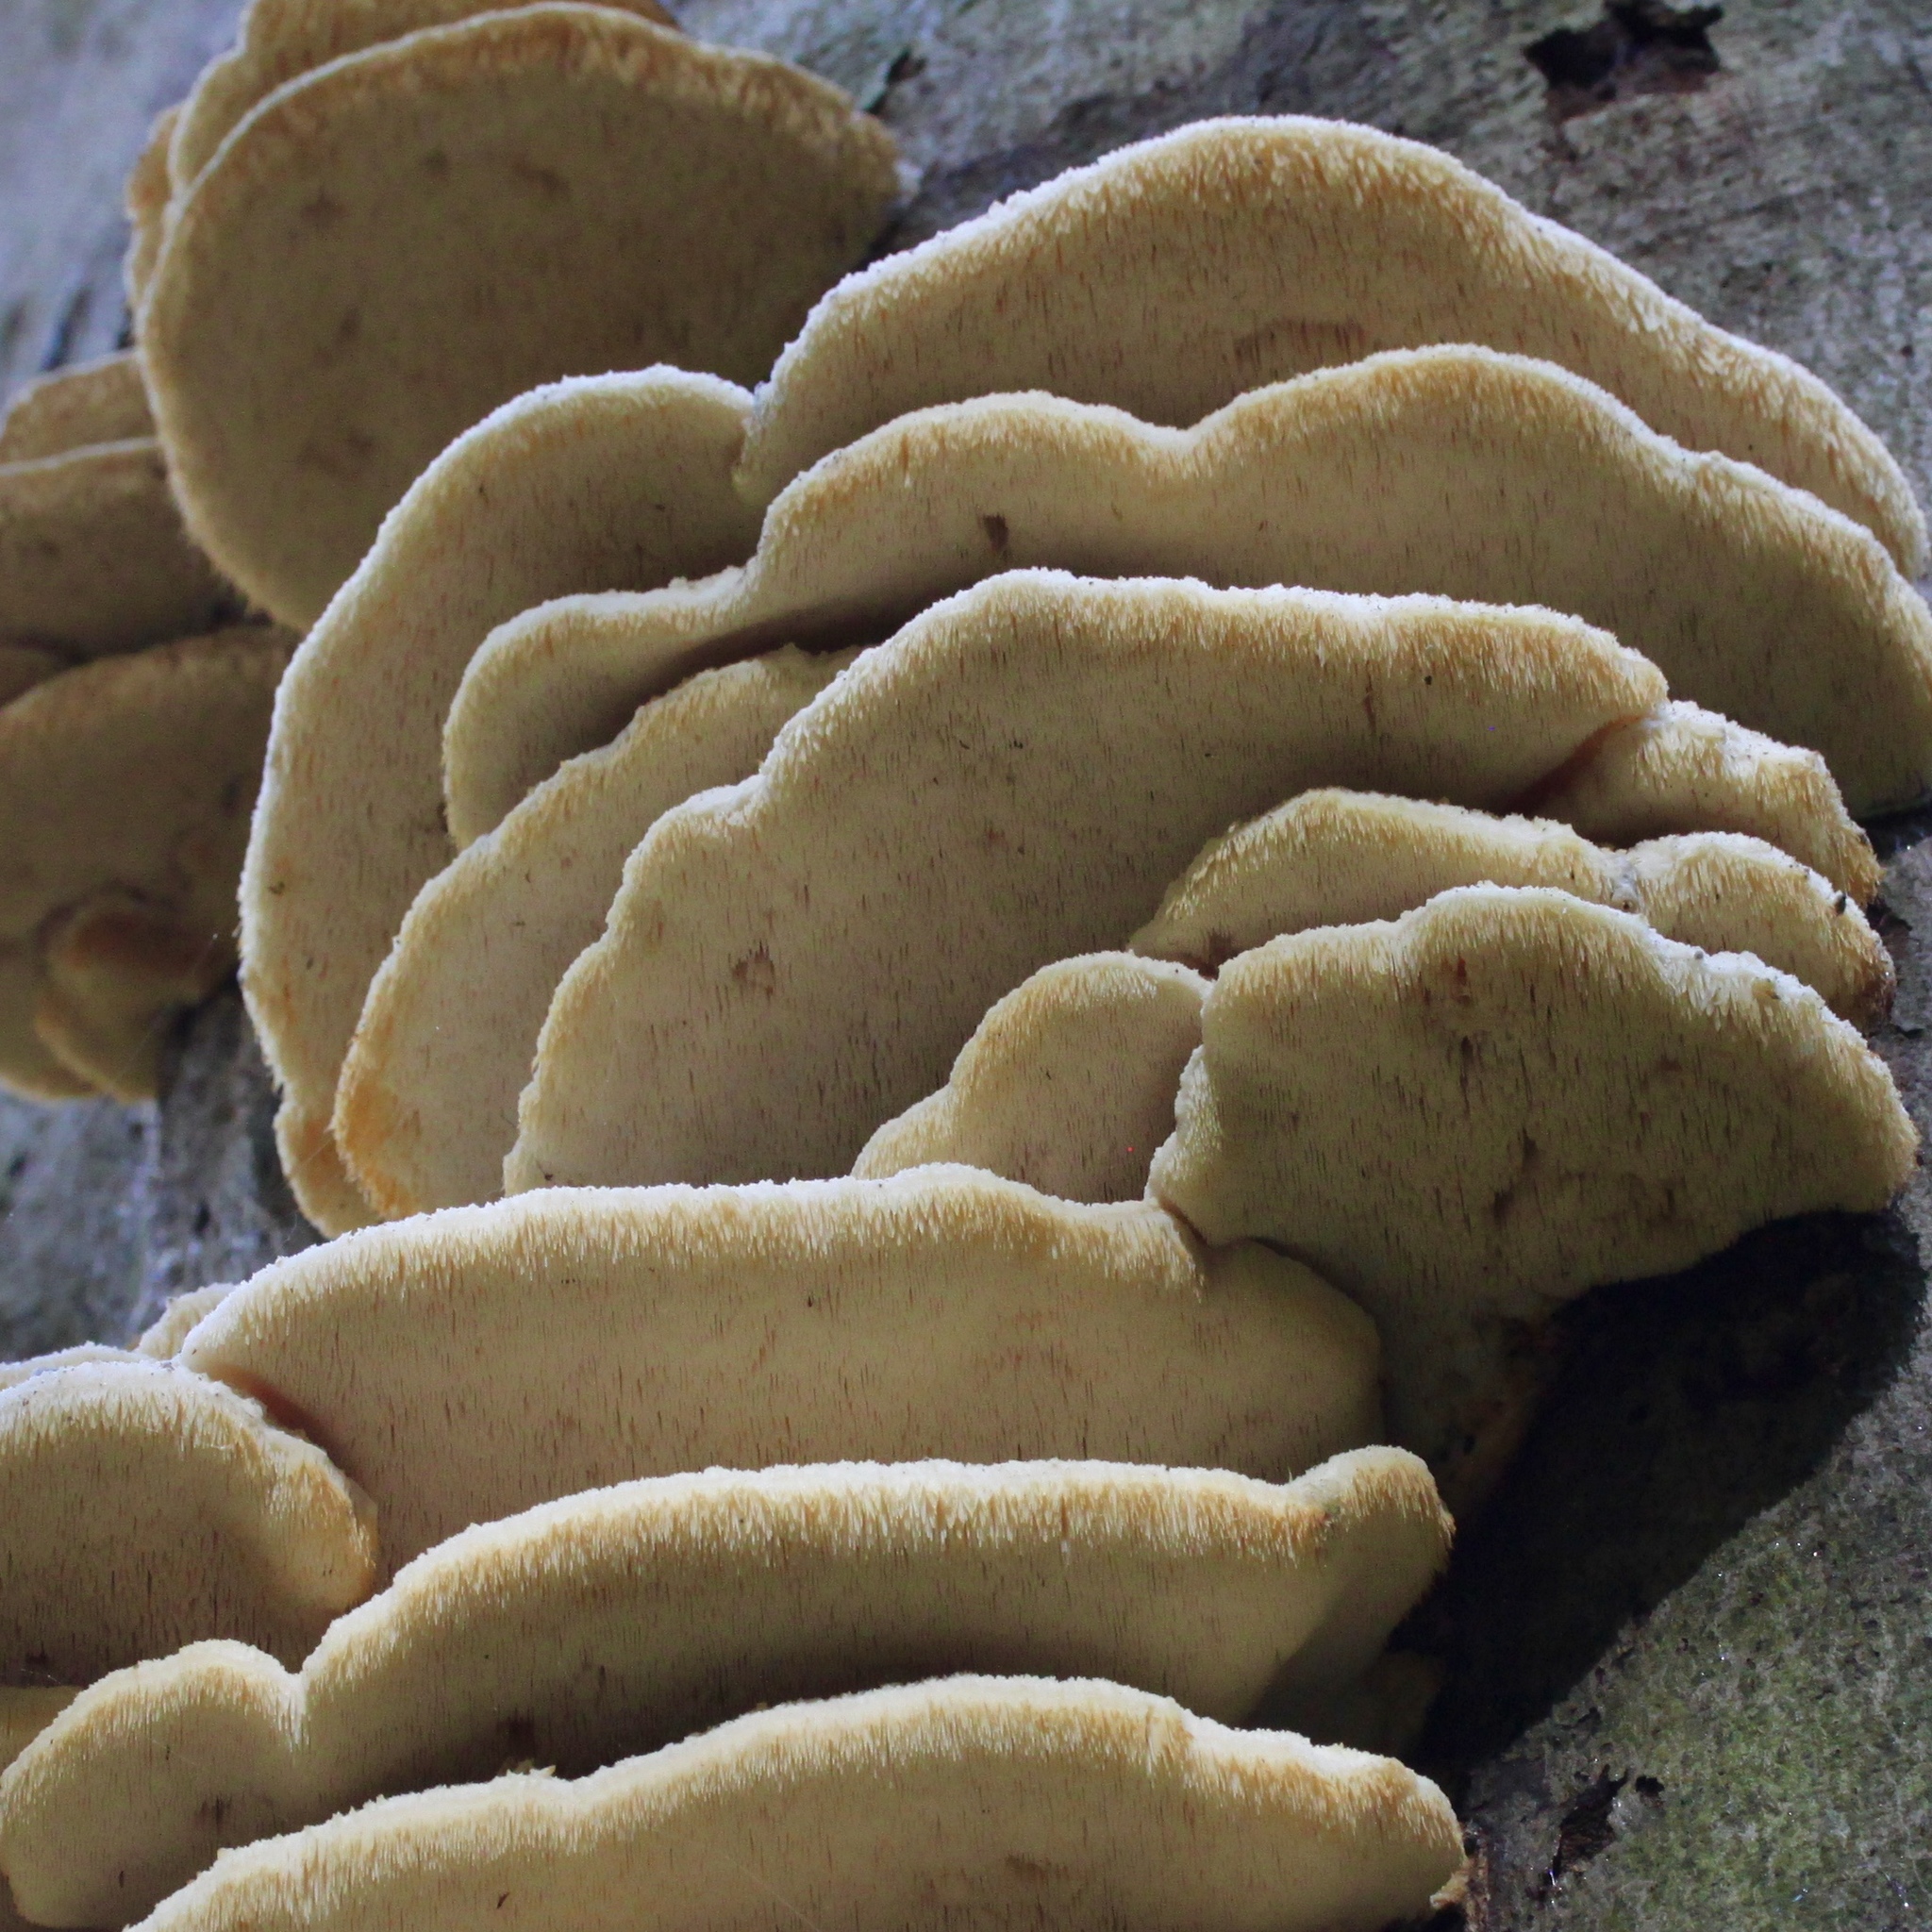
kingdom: Fungi
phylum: Basidiomycota
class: Agaricomycetes
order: Polyporales
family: Meruliaceae
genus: Climacodon
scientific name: Climacodon septentrionalis
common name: Northern tooth
